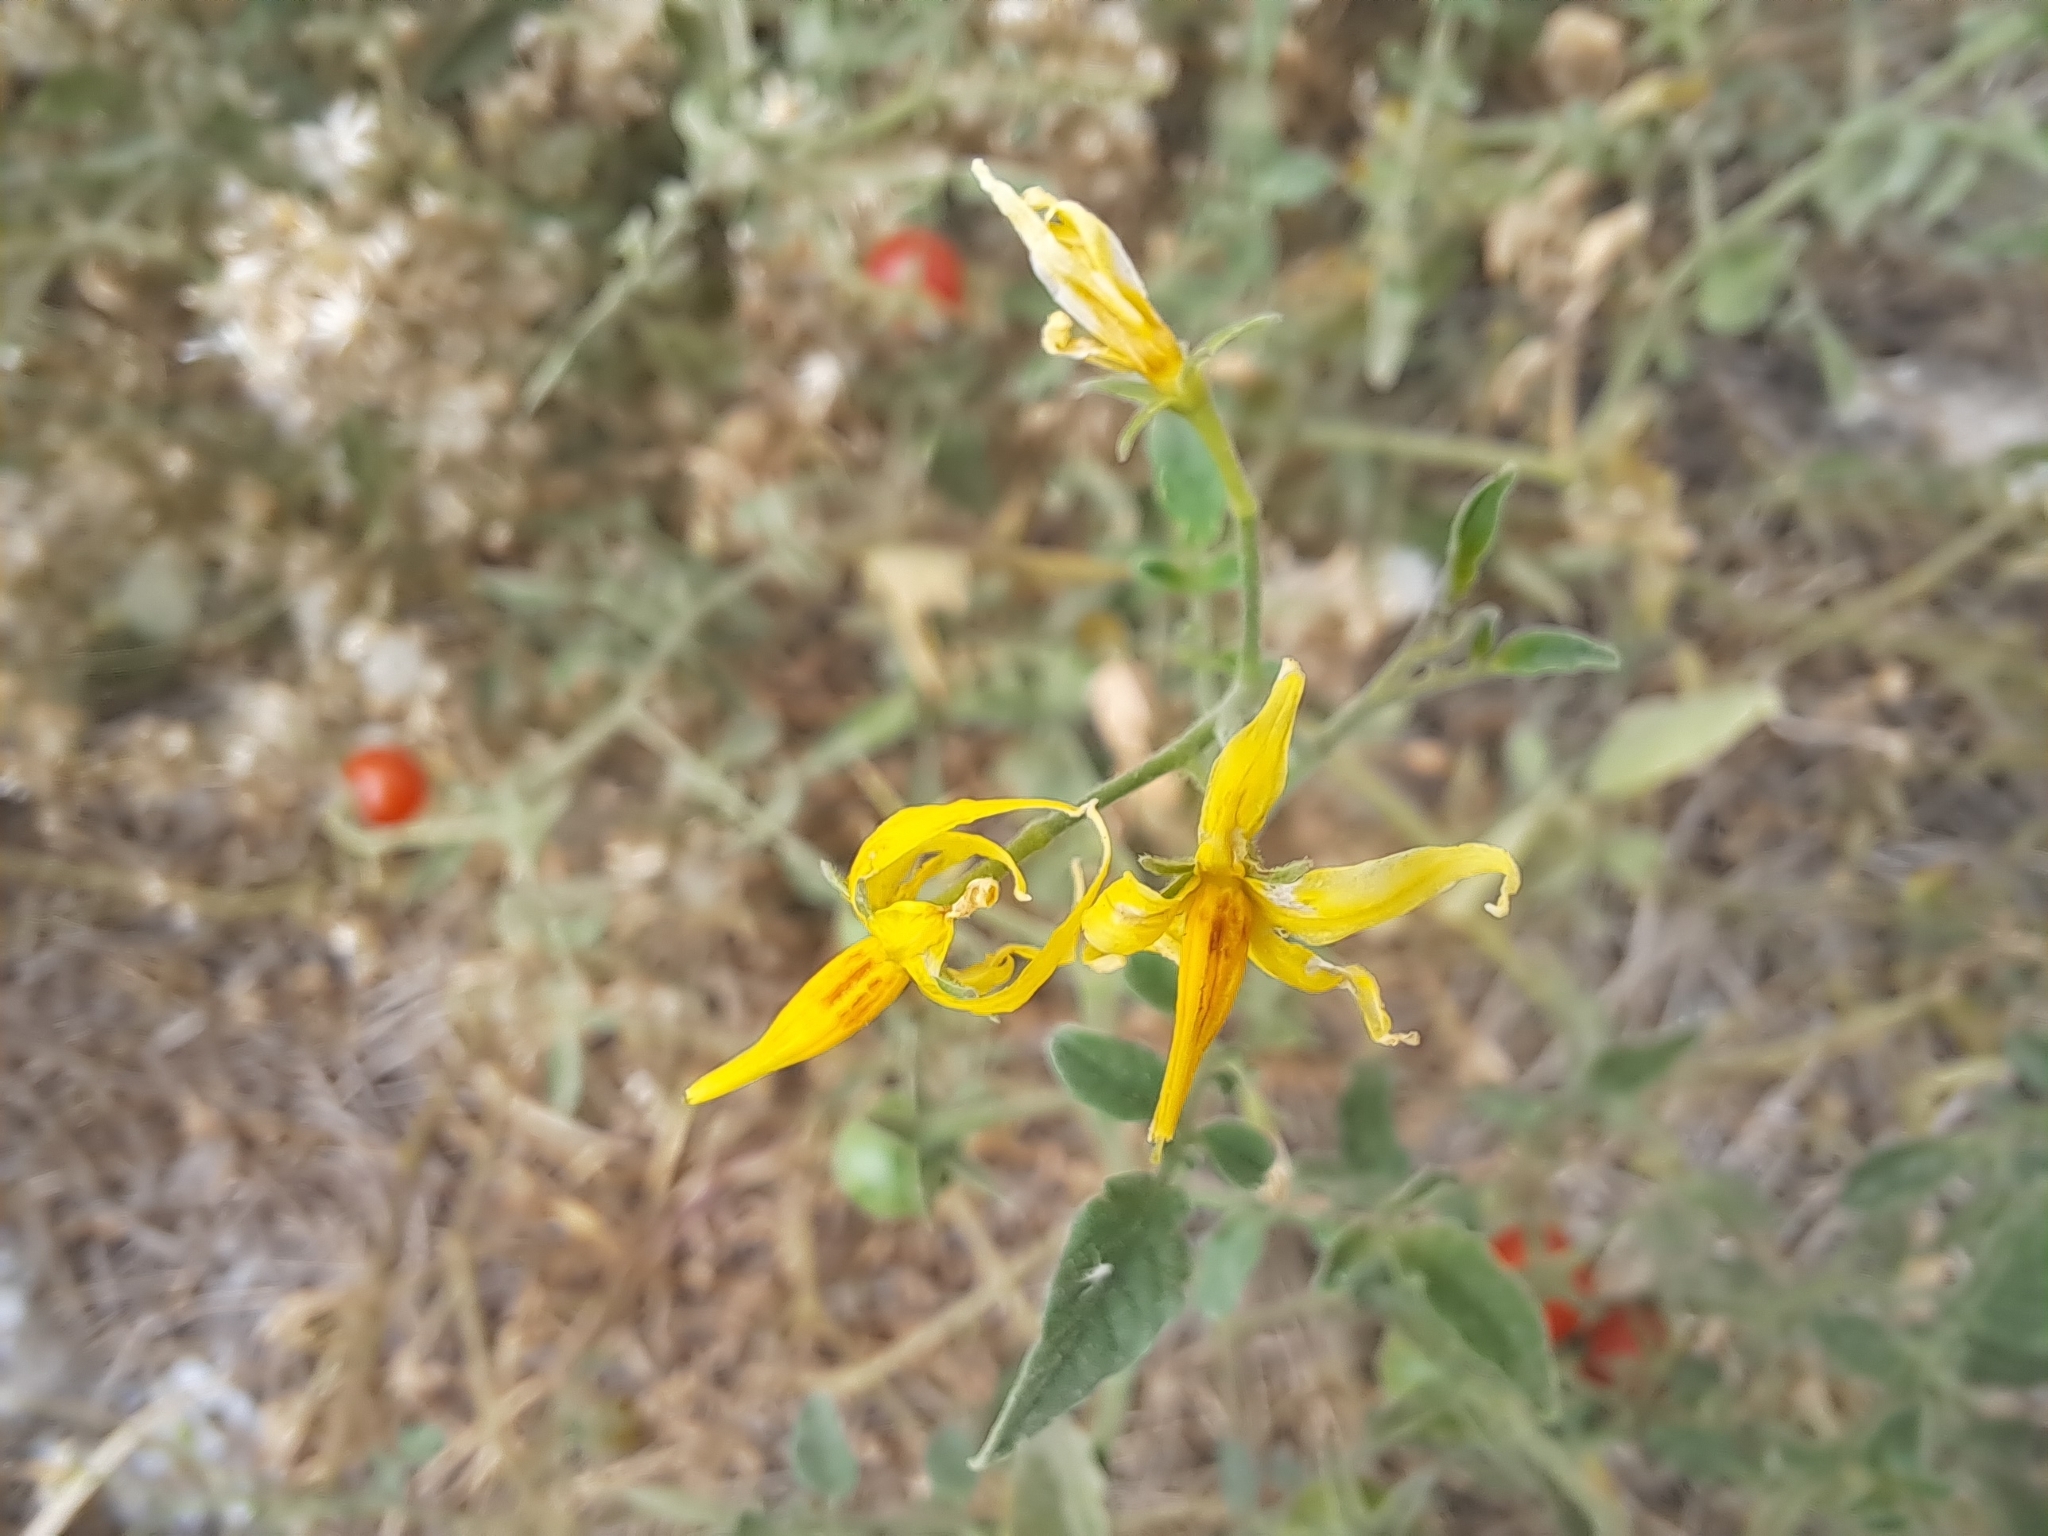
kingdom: Plantae
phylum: Tracheophyta
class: Magnoliopsida
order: Solanales
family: Solanaceae
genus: Solanum
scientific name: Solanum pimpinellifolium
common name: Currant-tomato
